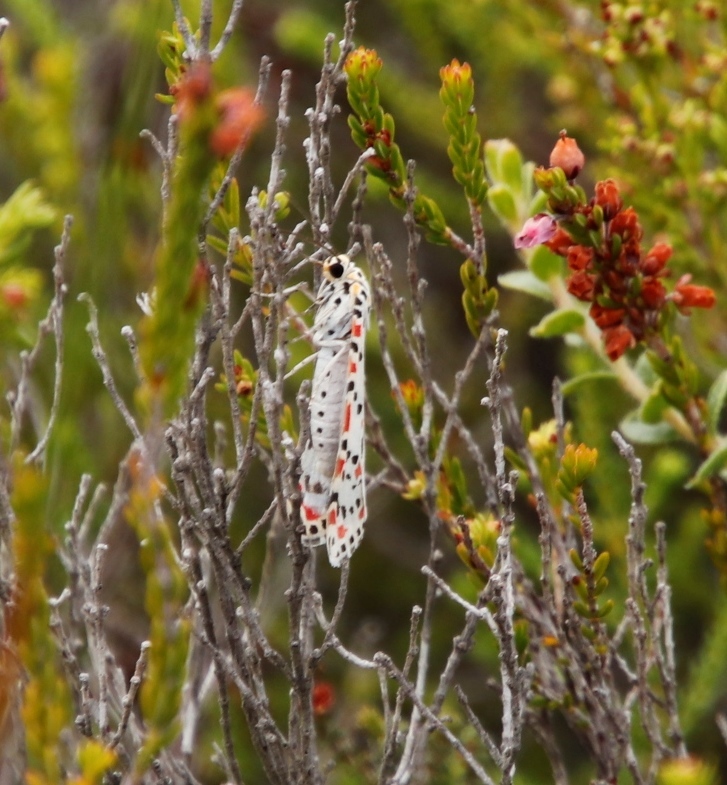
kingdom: Animalia
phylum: Arthropoda
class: Insecta
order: Lepidoptera
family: Erebidae
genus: Utetheisa
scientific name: Utetheisa pulchella
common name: Crimson speckled
